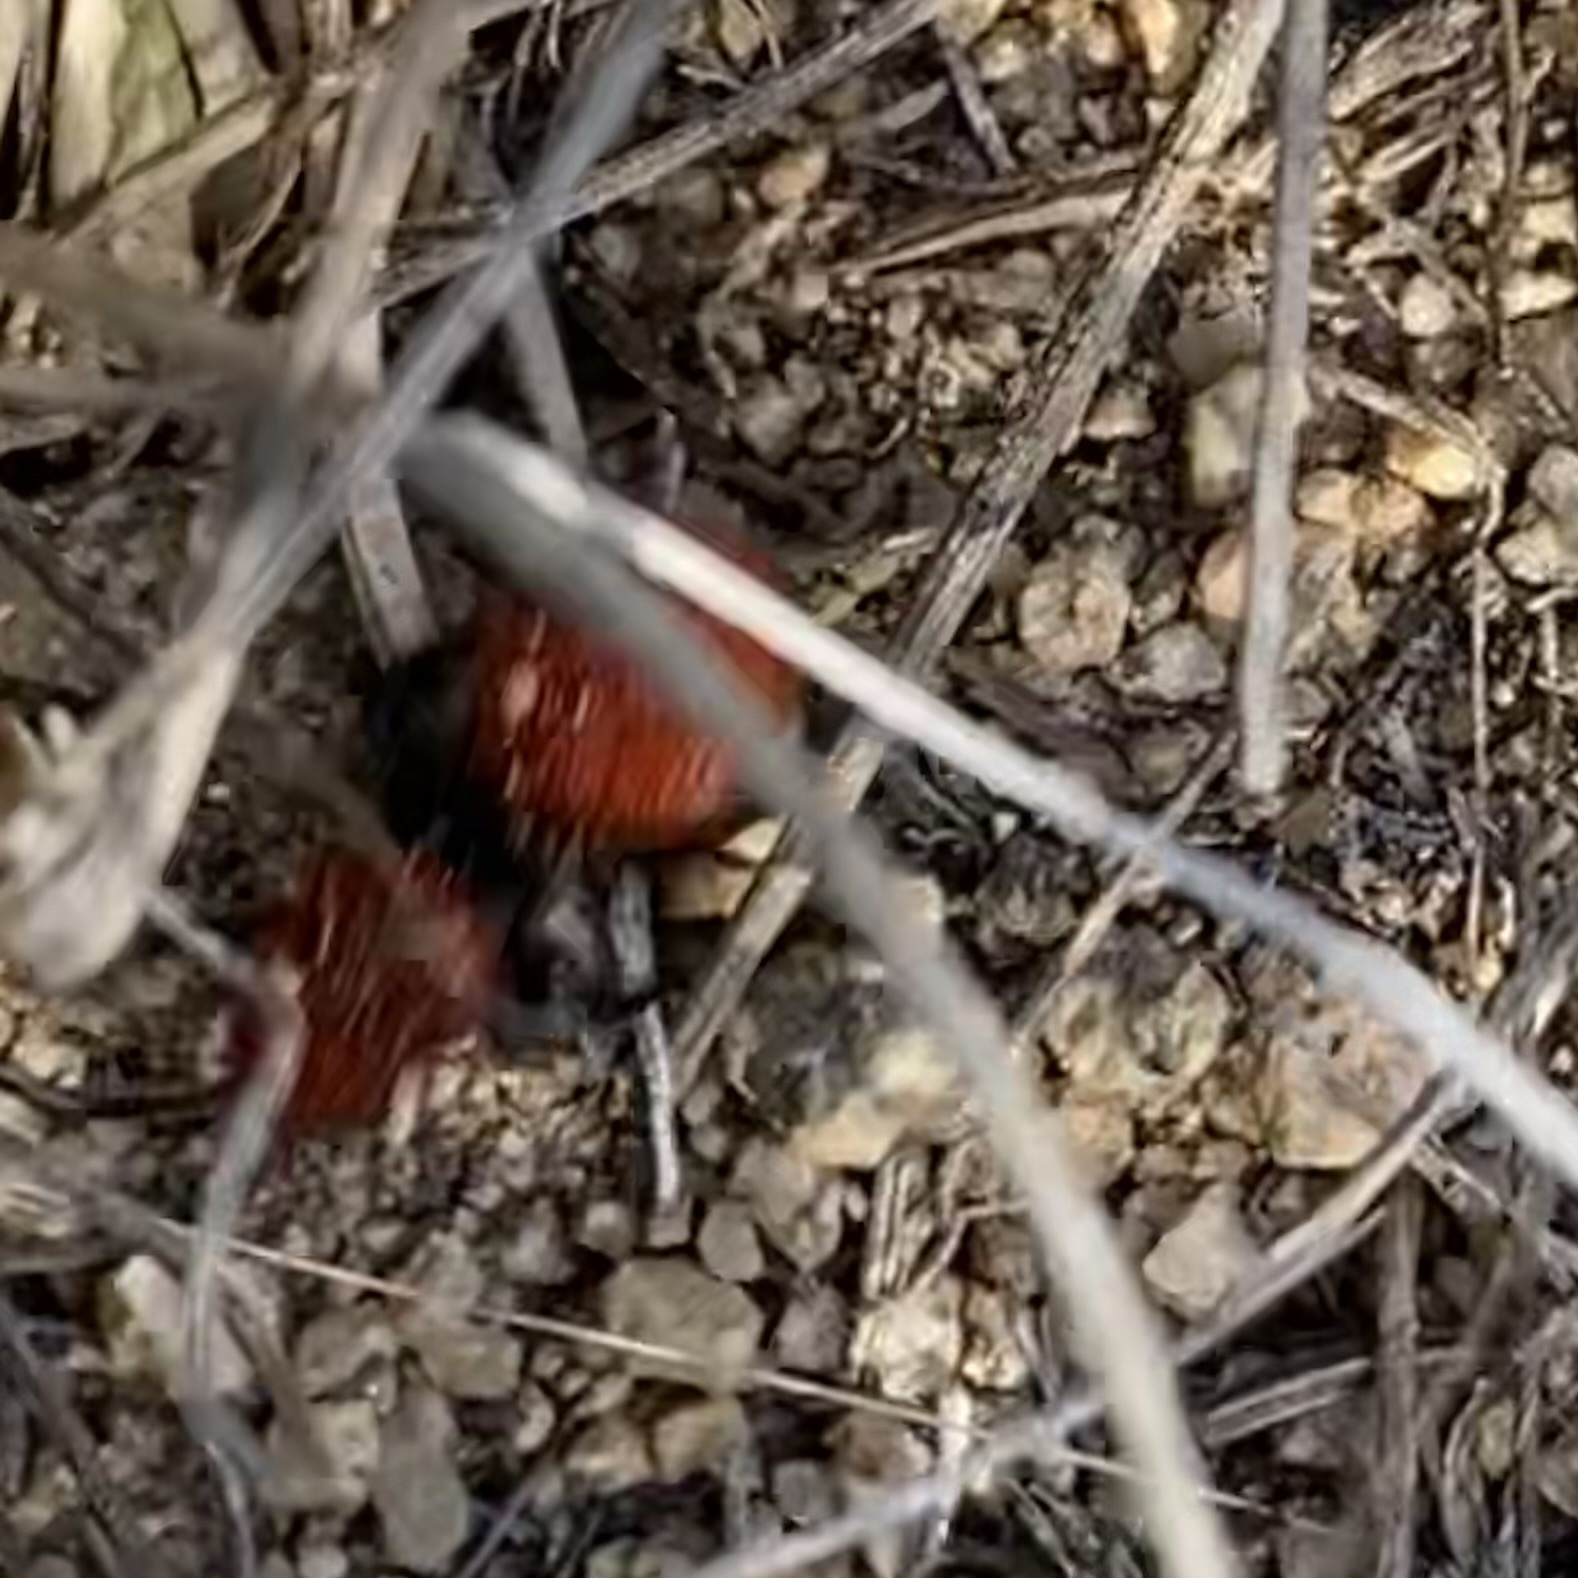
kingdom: Animalia
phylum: Arthropoda
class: Insecta
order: Hymenoptera
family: Mutillidae
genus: Dasymutilla
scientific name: Dasymutilla vestita
